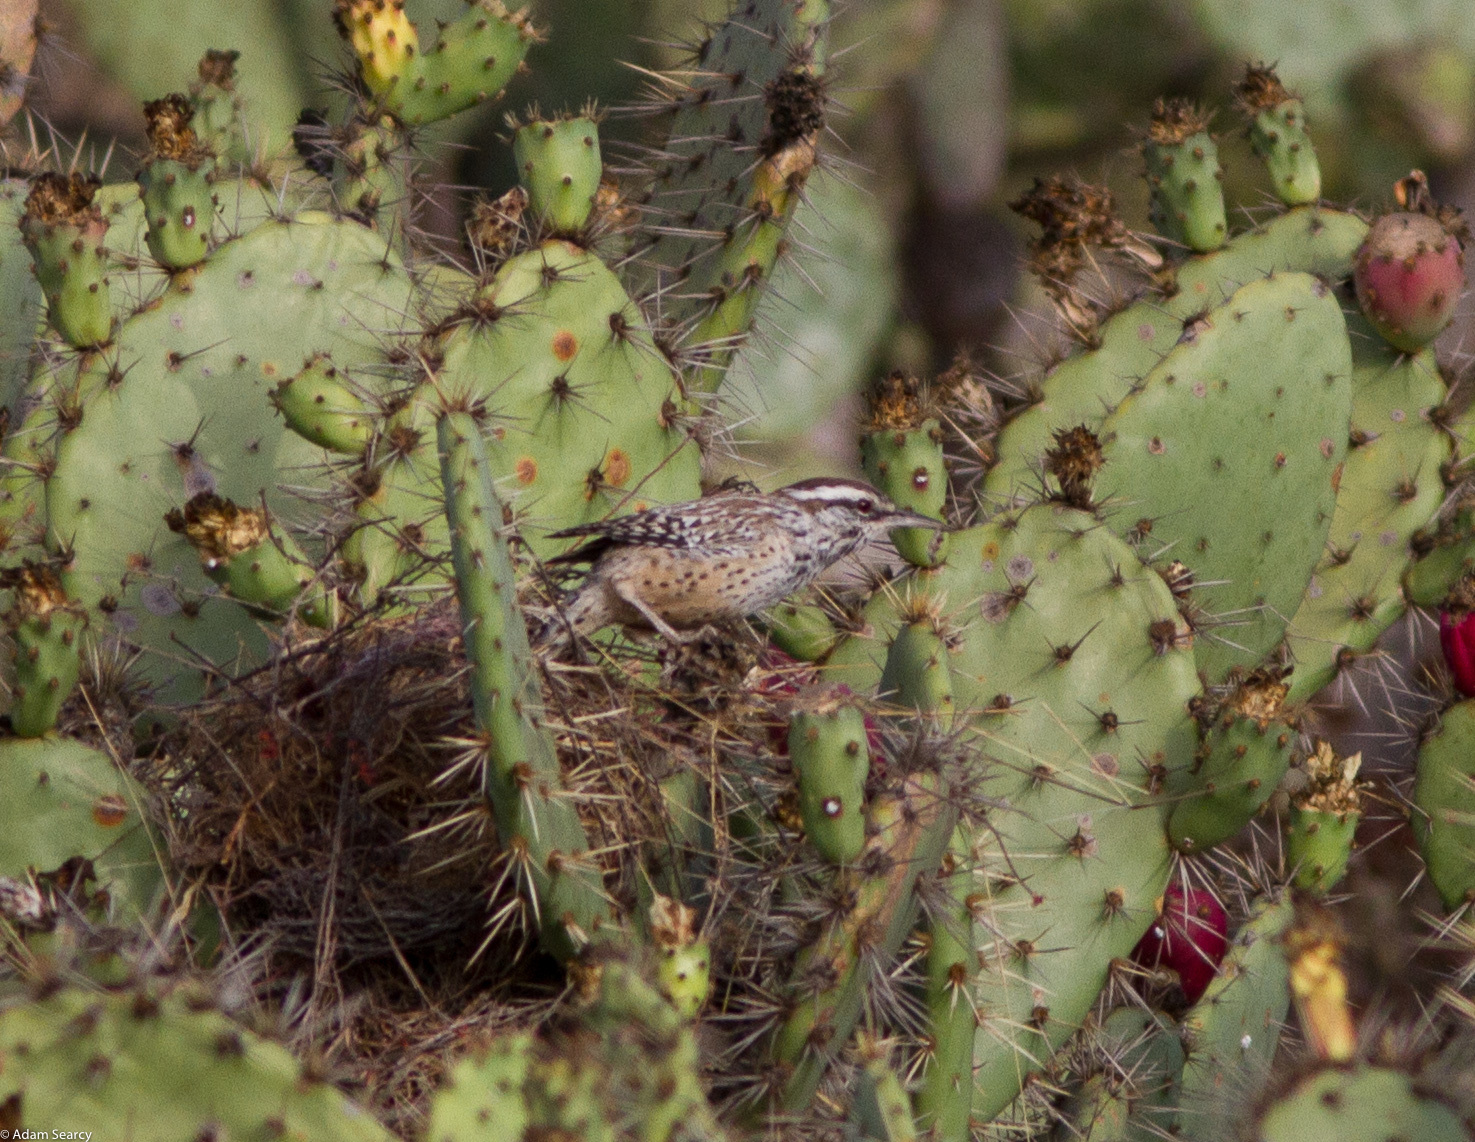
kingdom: Animalia
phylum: Chordata
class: Aves
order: Passeriformes
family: Troglodytidae
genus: Campylorhynchus
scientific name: Campylorhynchus brunneicapillus
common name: Cactus wren
